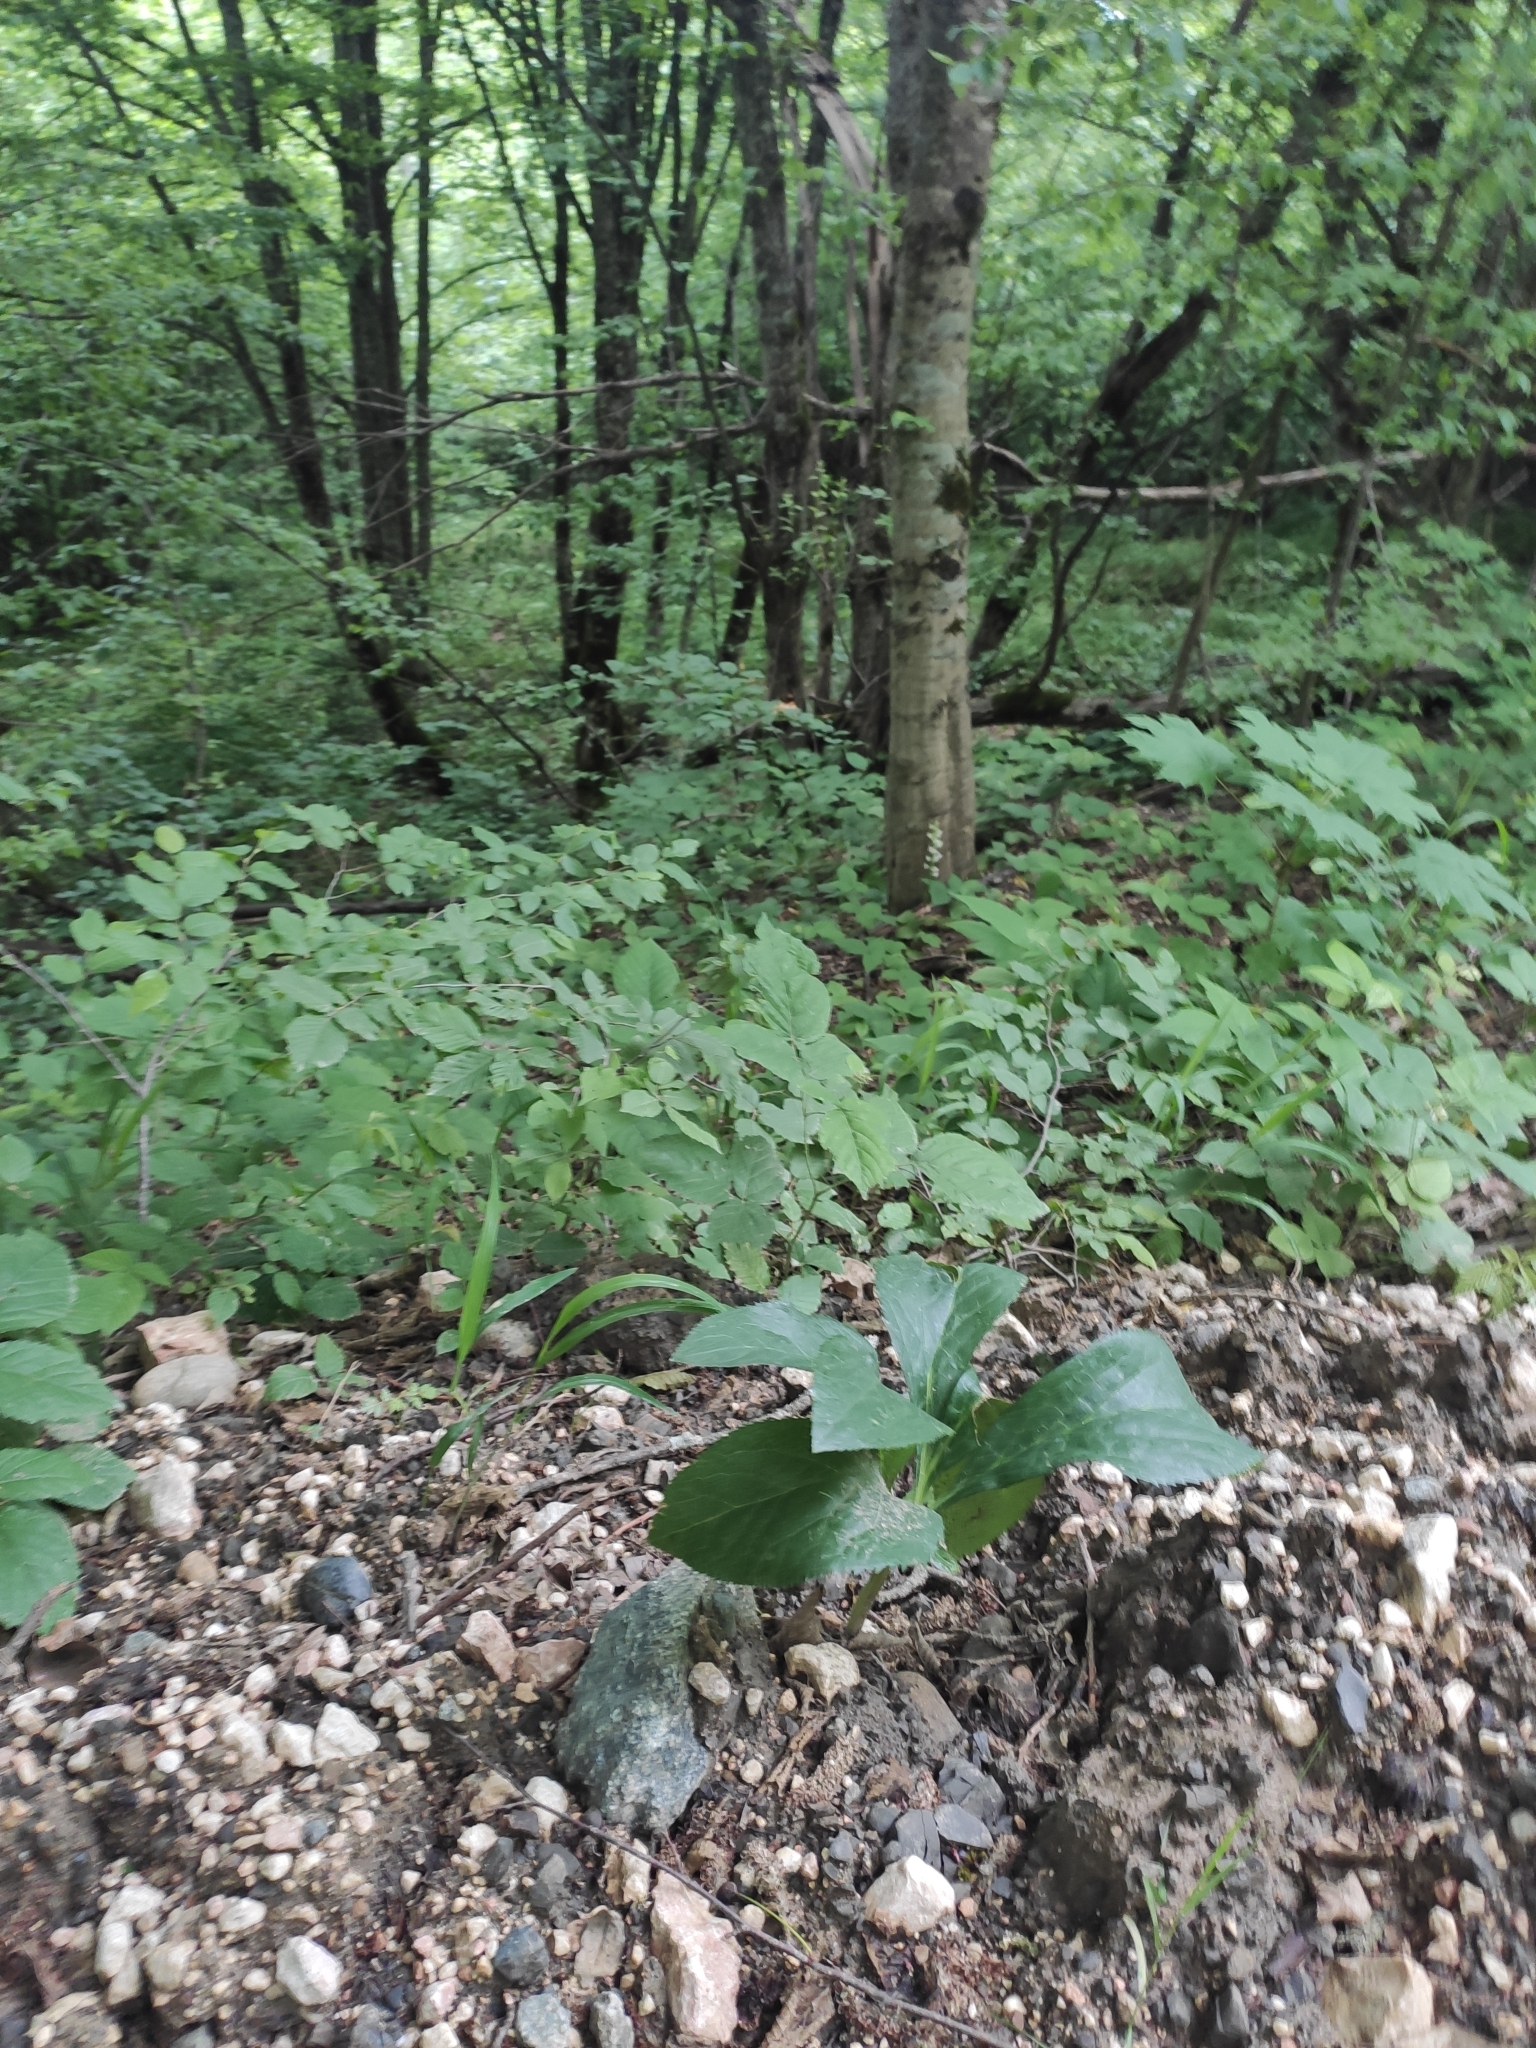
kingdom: Plantae
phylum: Tracheophyta
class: Magnoliopsida
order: Ranunculales
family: Ranunculaceae
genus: Helleborus
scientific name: Helleborus orientalis
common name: Lenten-rose
